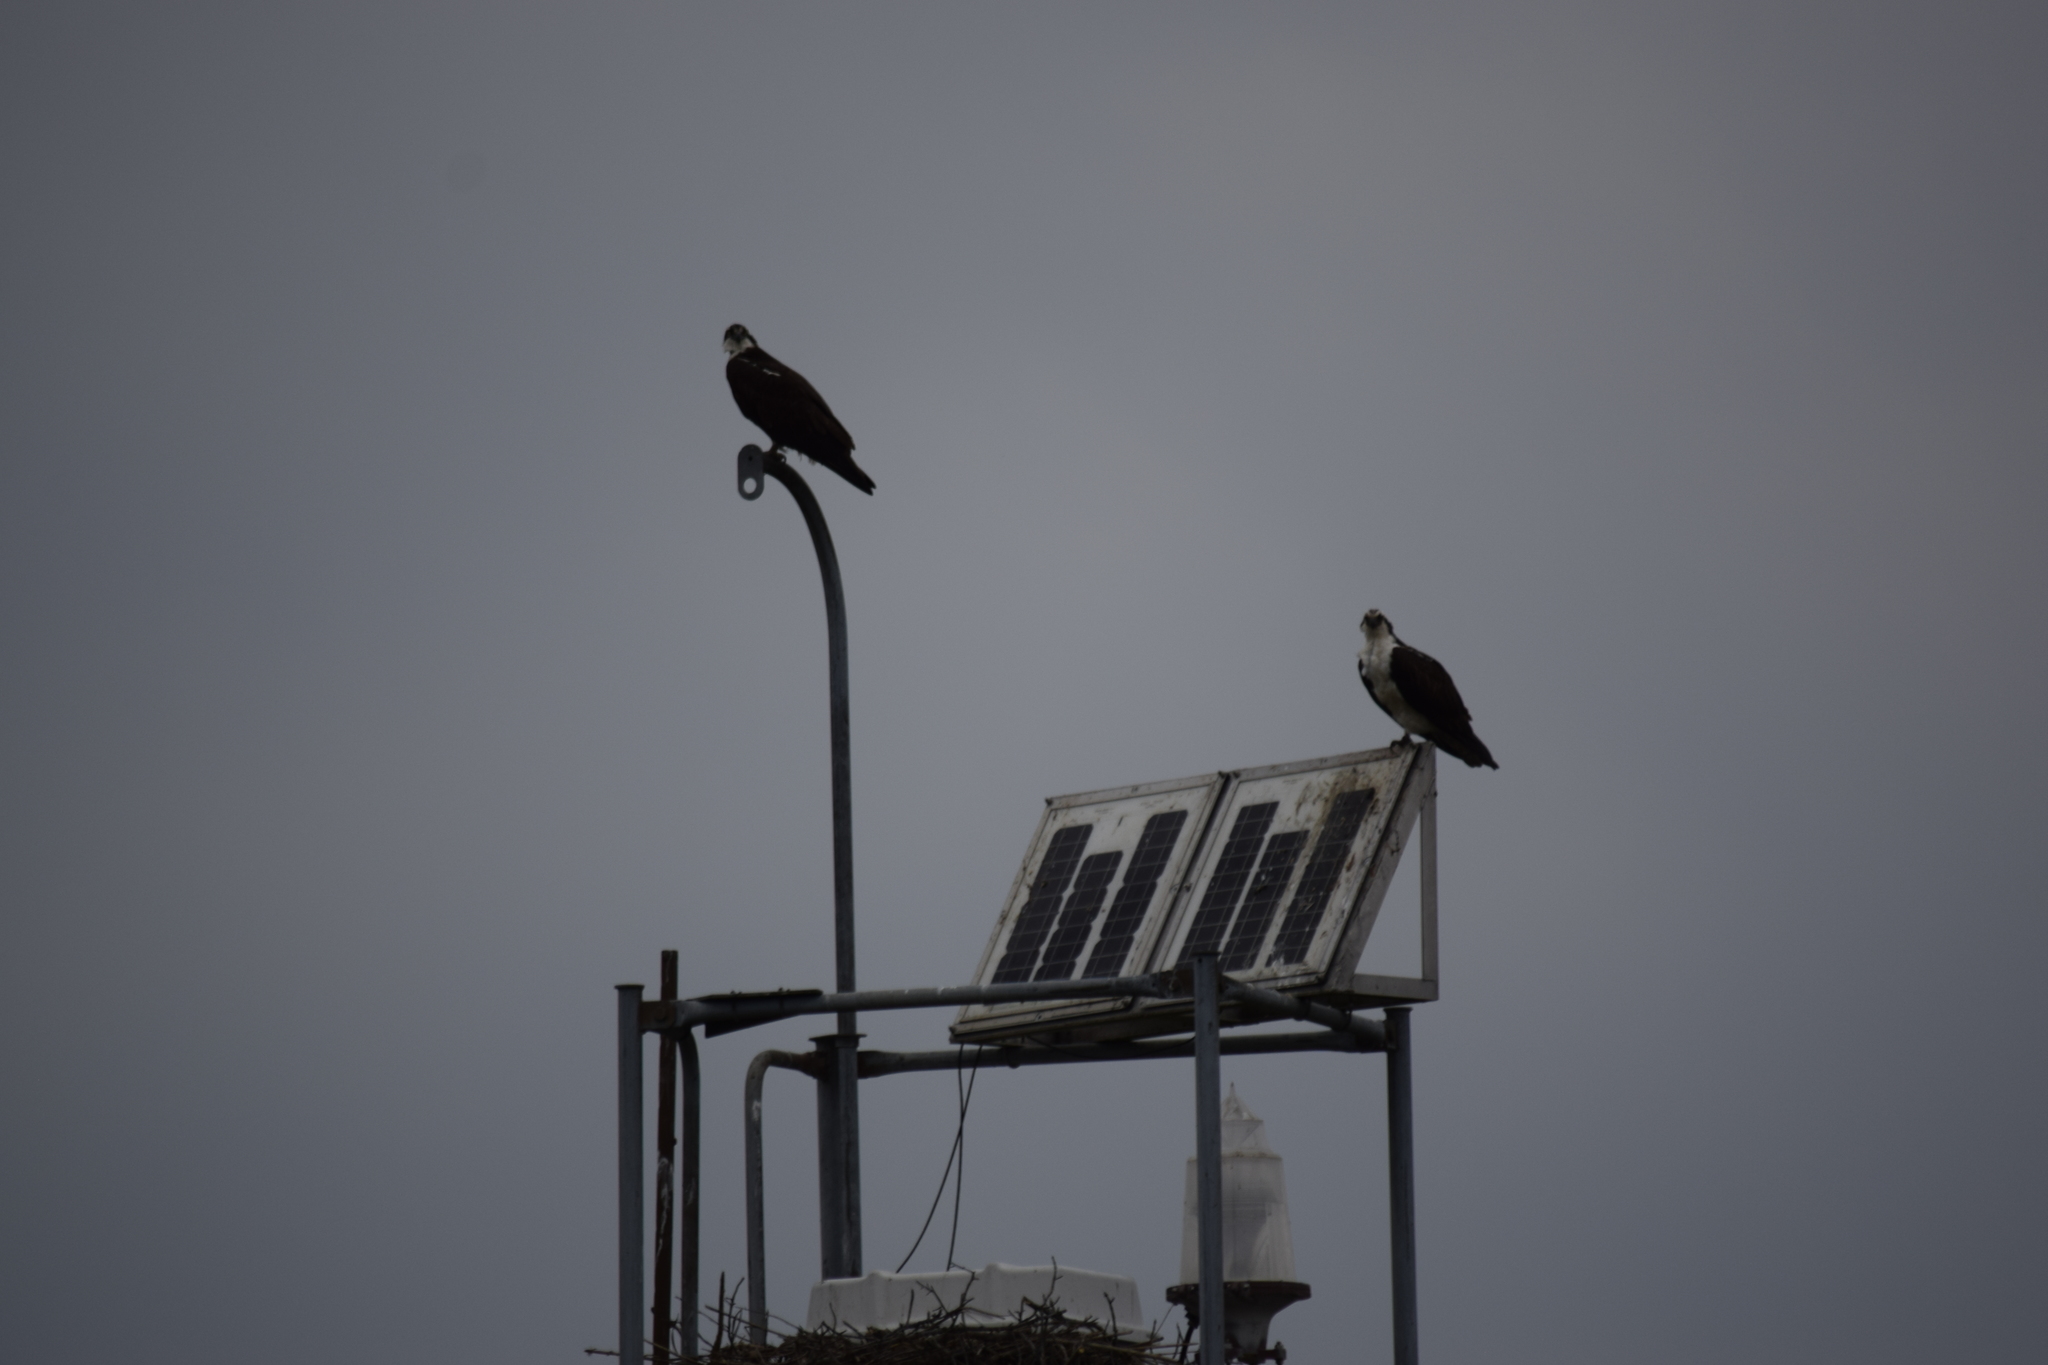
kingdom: Animalia
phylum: Chordata
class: Aves
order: Accipitriformes
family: Pandionidae
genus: Pandion
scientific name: Pandion haliaetus
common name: Osprey
